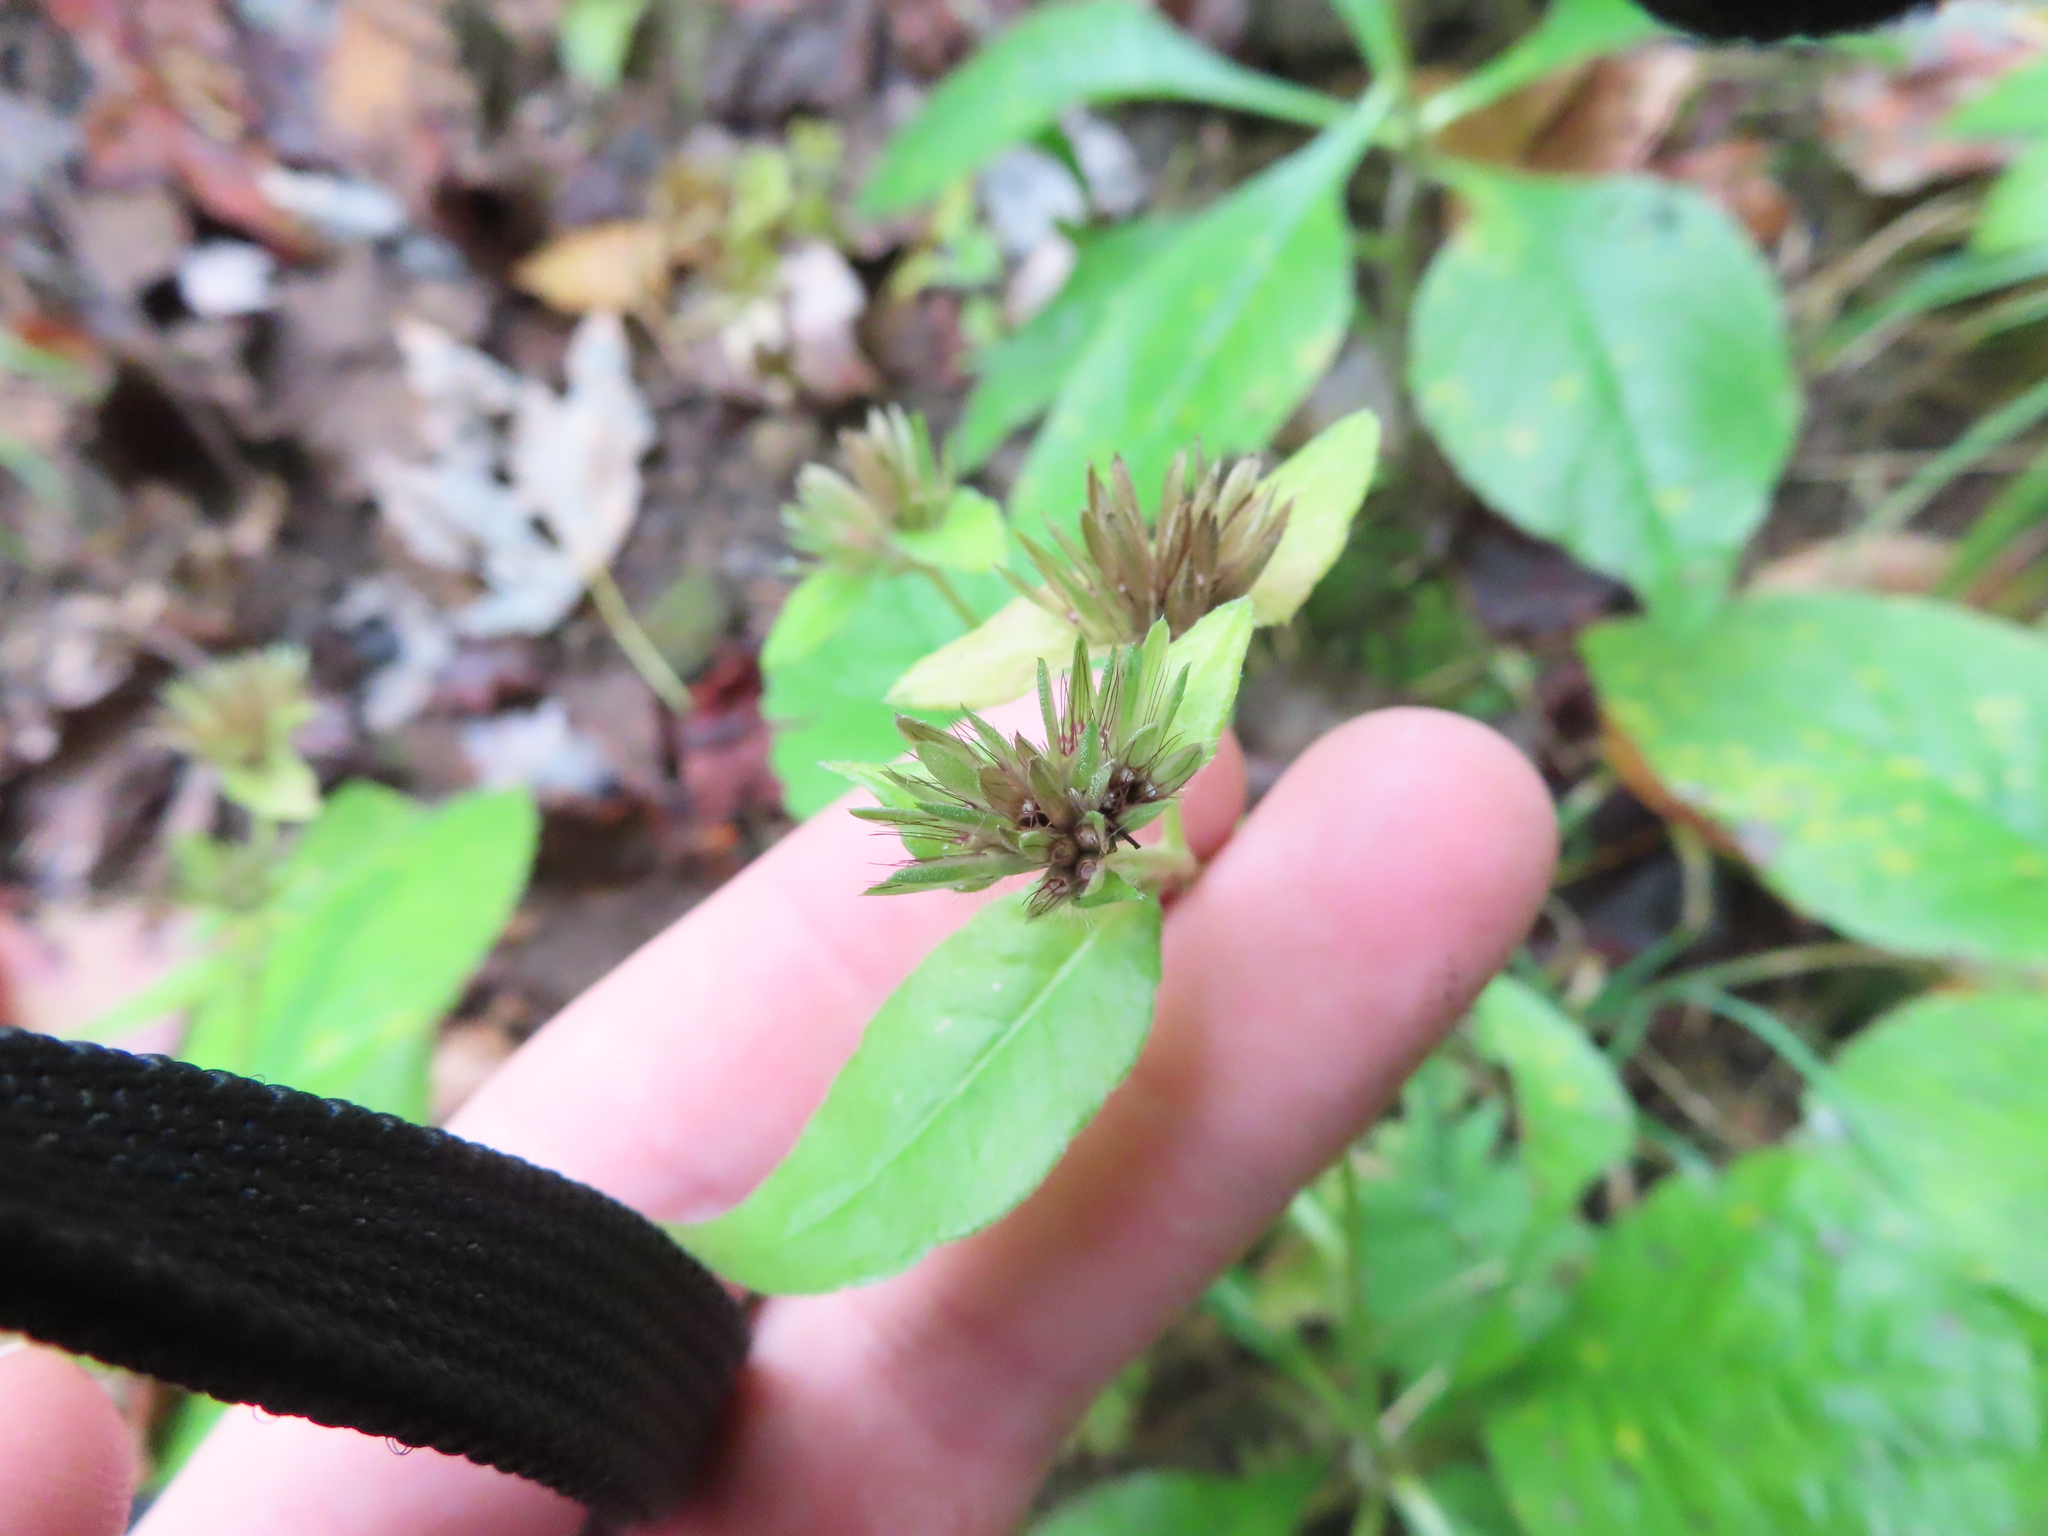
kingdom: Plantae
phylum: Tracheophyta
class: Magnoliopsida
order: Asterales
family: Asteraceae
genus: Elephantopus
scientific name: Elephantopus carolinianus
